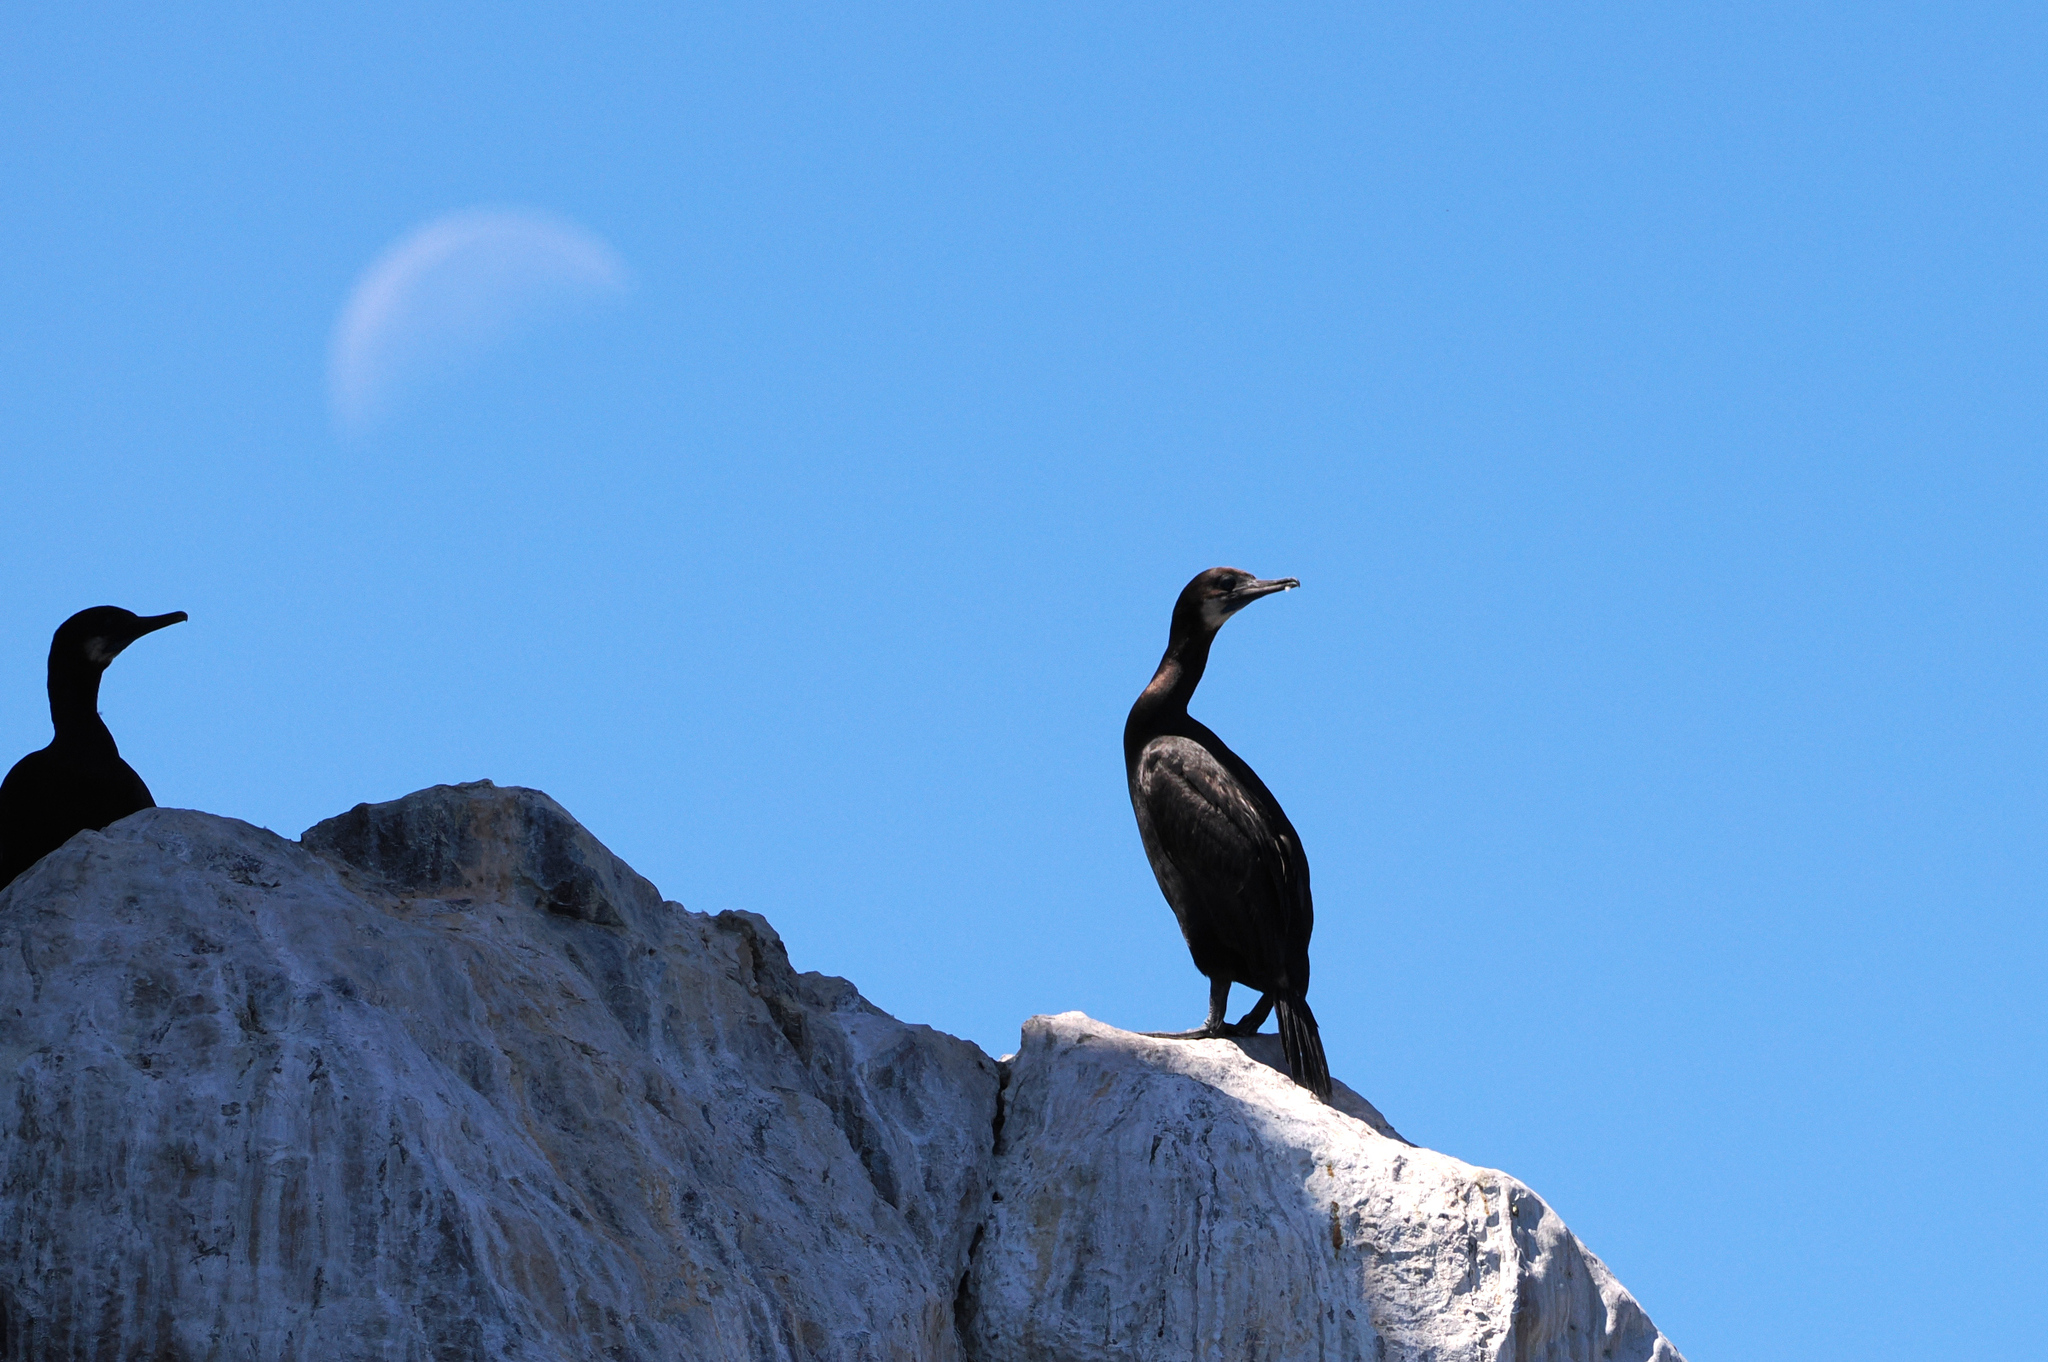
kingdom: Animalia
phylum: Chordata
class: Aves
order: Suliformes
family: Phalacrocoracidae
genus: Urile
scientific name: Urile penicillatus
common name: Brandt's cormorant
